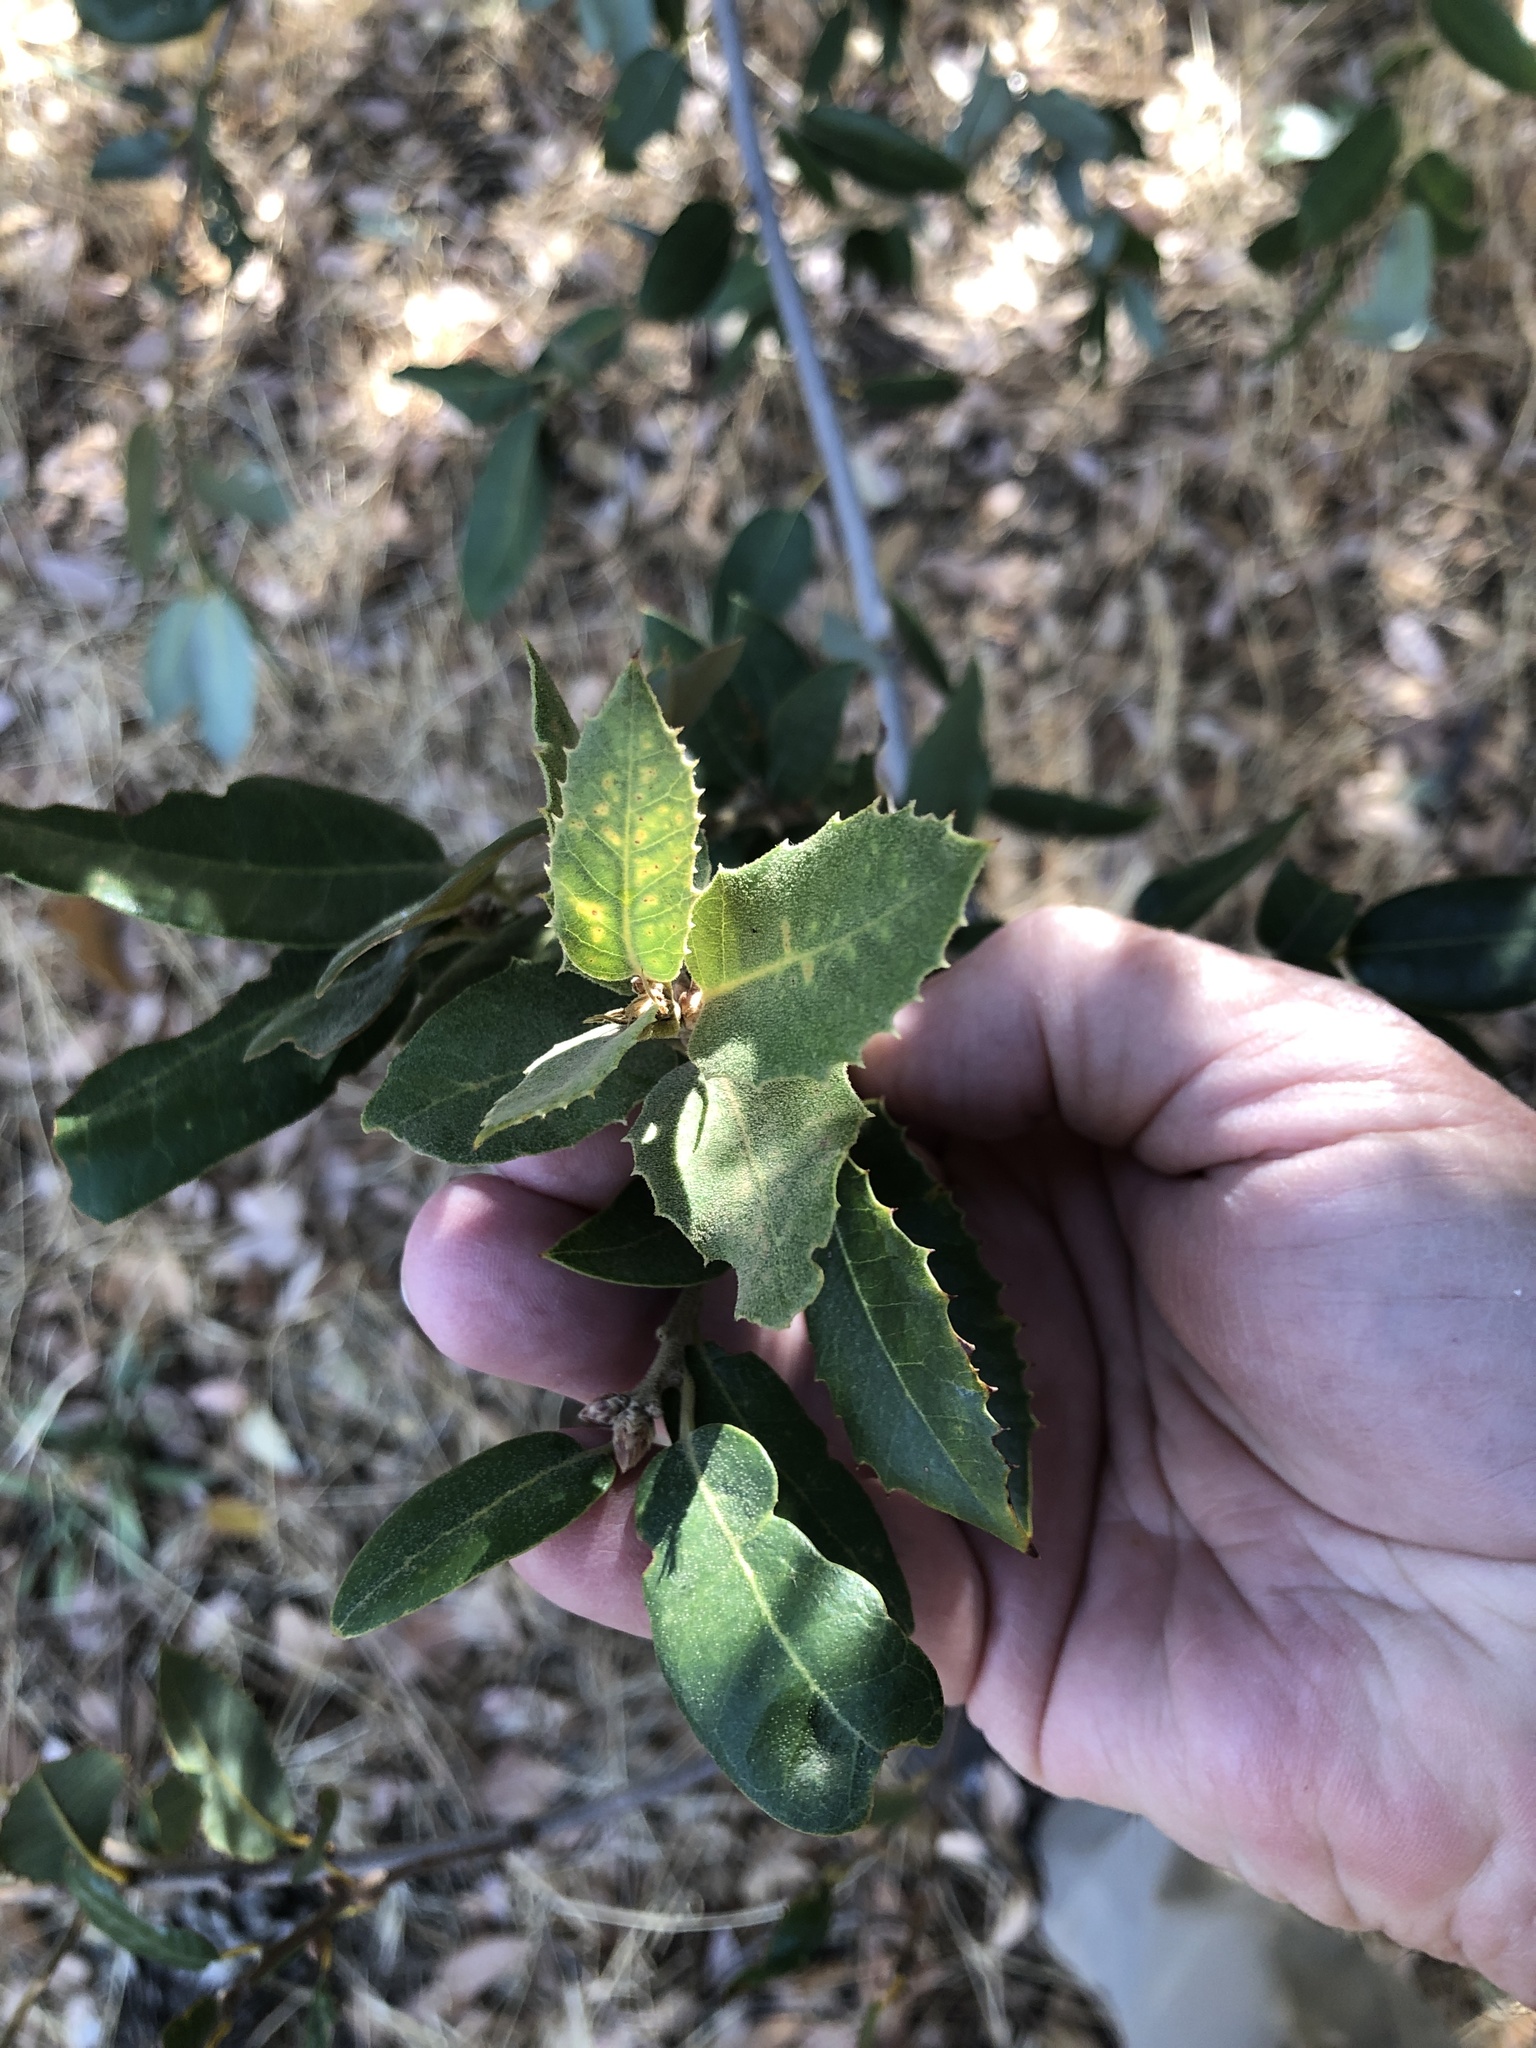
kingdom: Plantae
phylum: Tracheophyta
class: Magnoliopsida
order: Fagales
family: Fagaceae
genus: Quercus
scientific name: Quercus chrysolepis
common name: Canyon live oak
